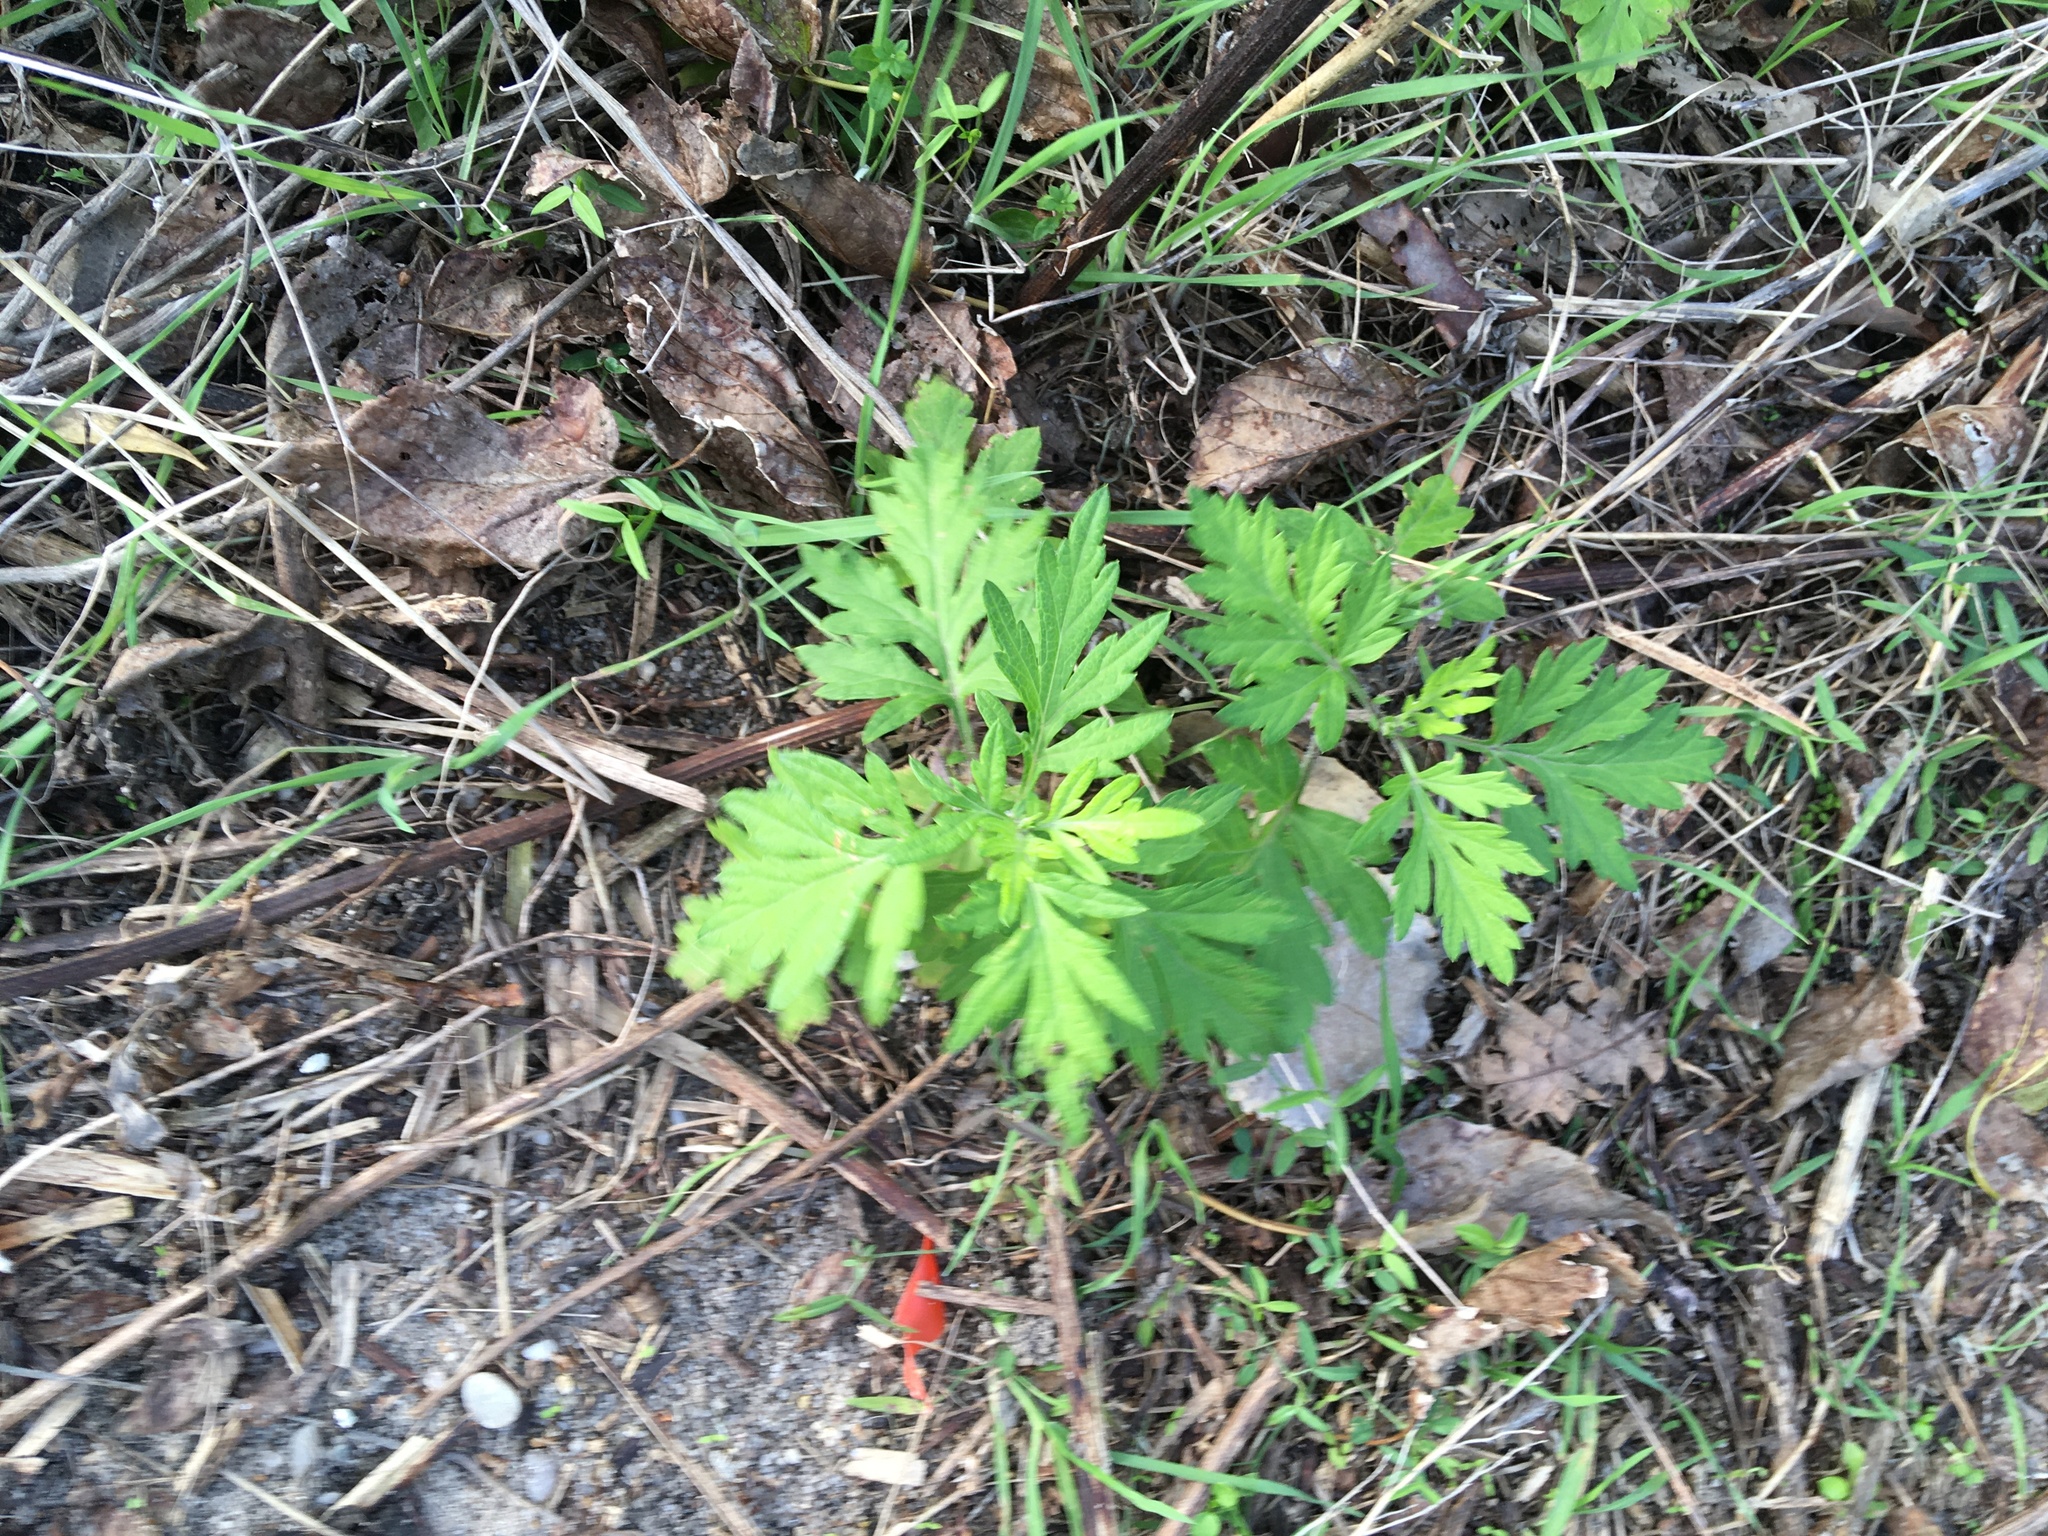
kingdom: Plantae
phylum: Tracheophyta
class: Magnoliopsida
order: Asterales
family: Asteraceae
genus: Artemisia
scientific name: Artemisia vulgaris
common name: Mugwort
